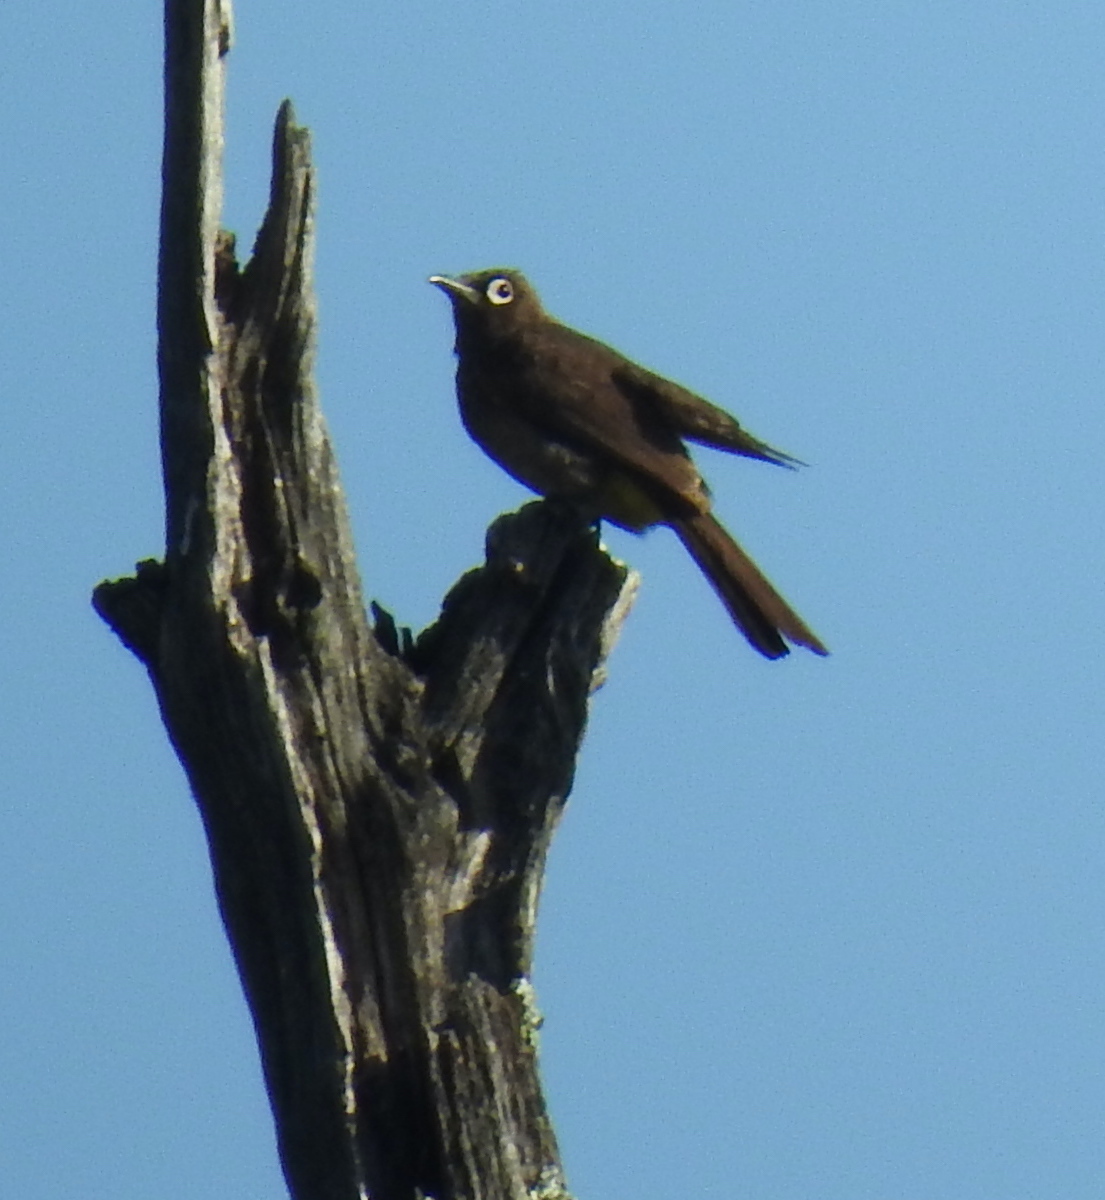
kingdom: Animalia
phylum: Chordata
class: Aves
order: Passeriformes
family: Pycnonotidae
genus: Pycnonotus
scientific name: Pycnonotus capensis
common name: Cape bulbul
